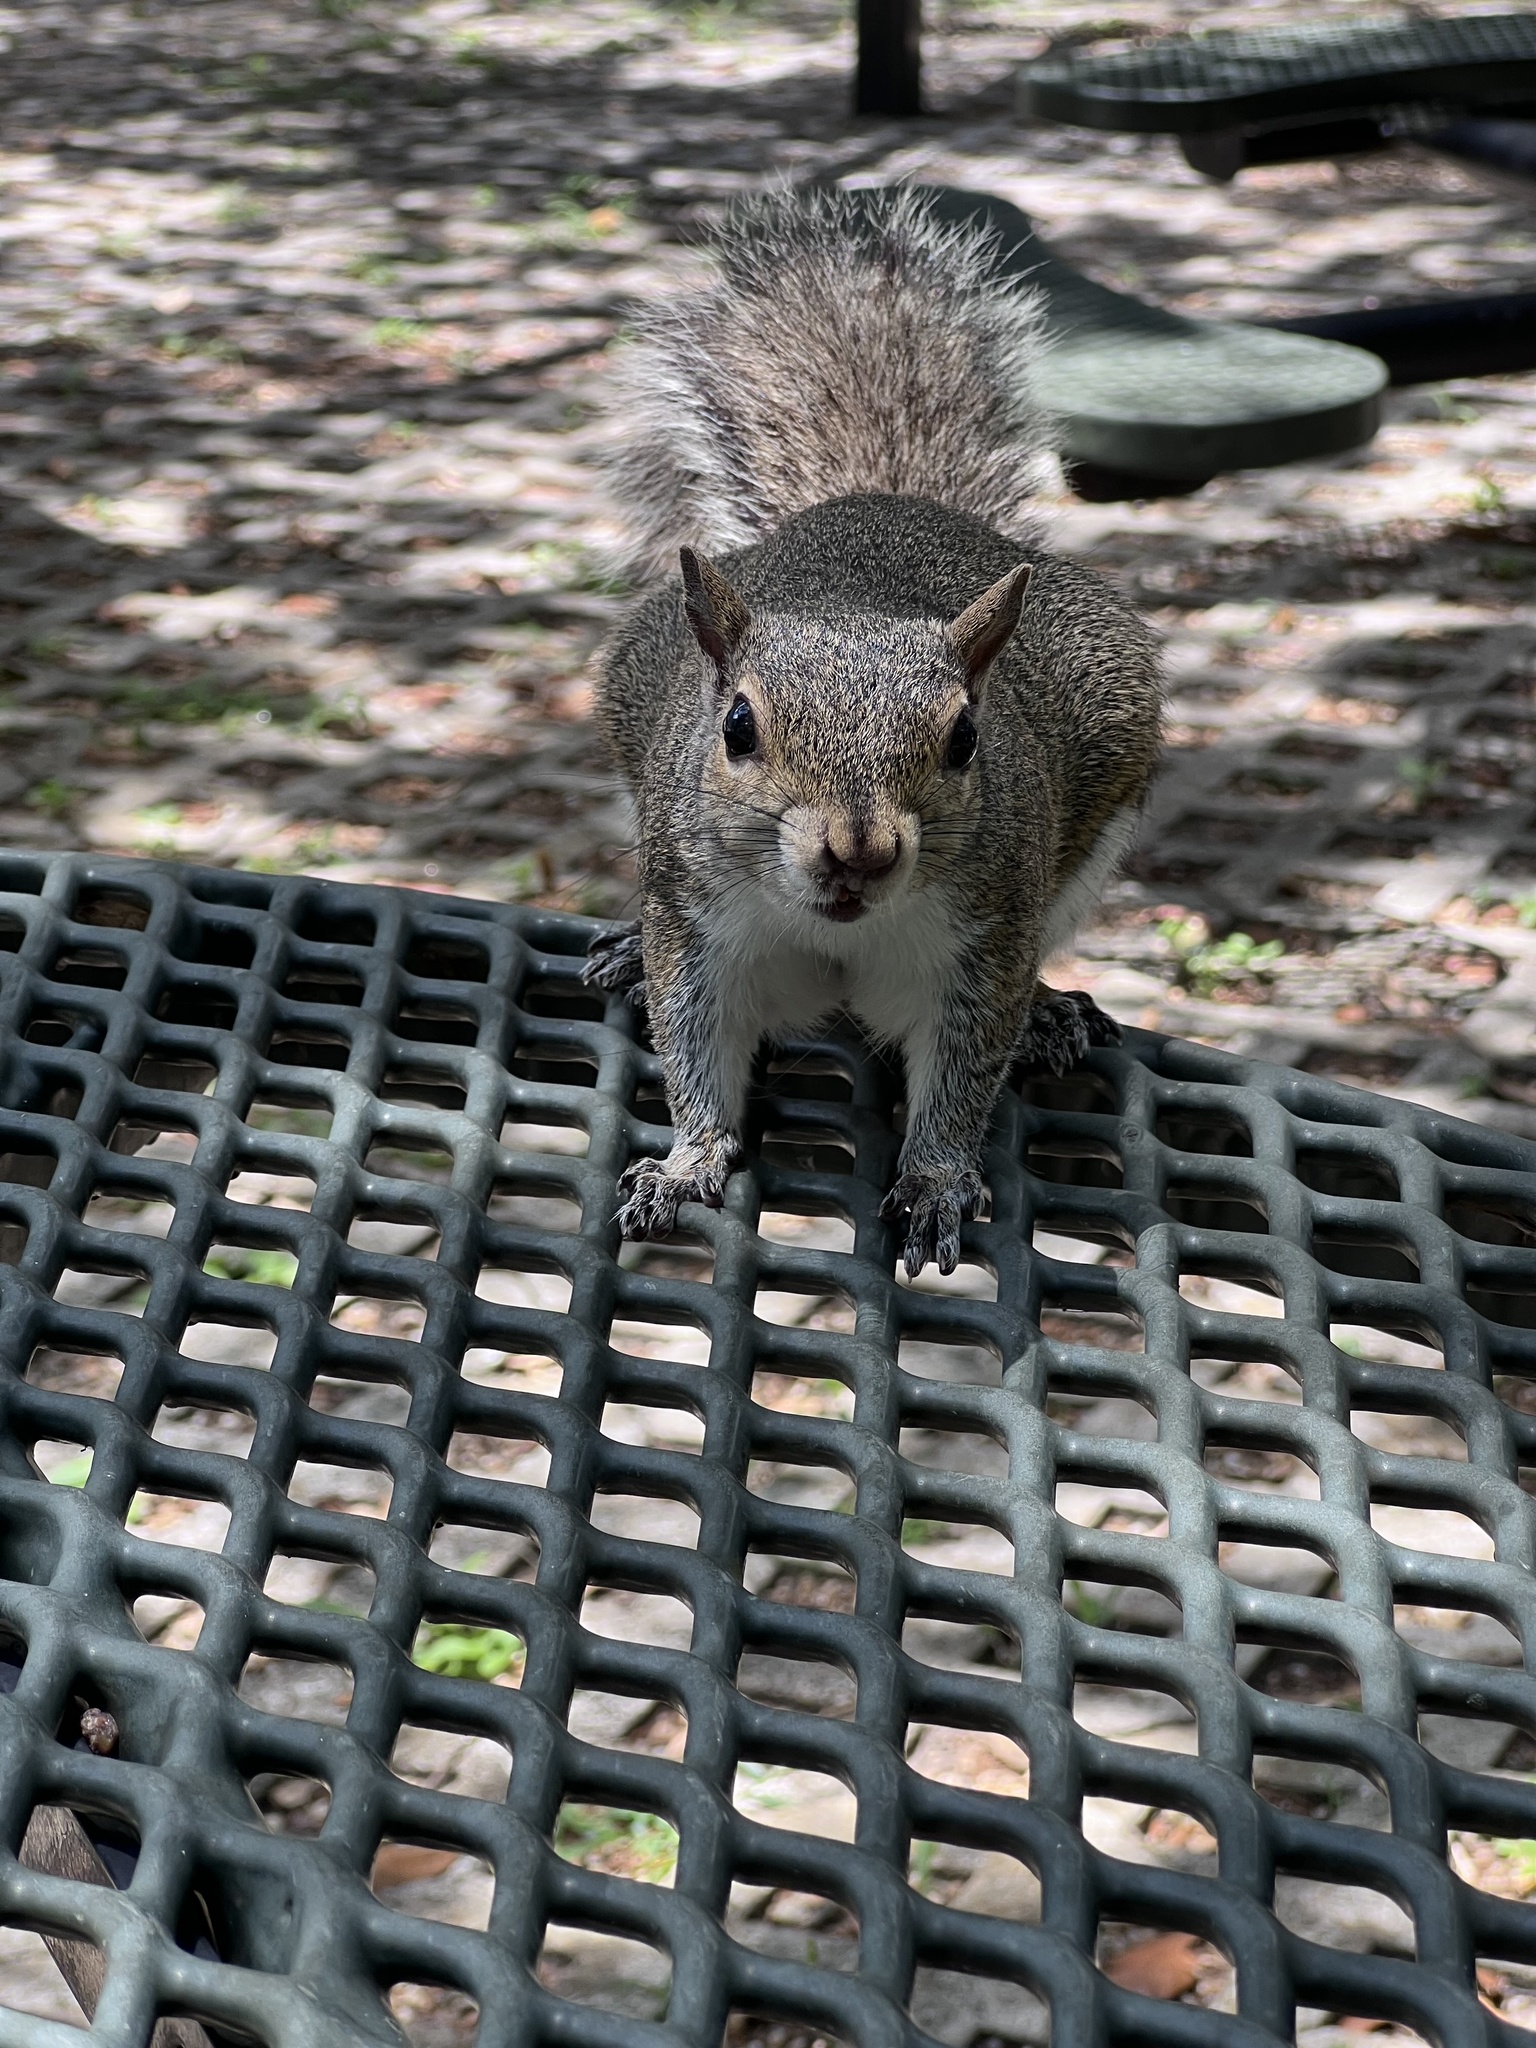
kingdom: Animalia
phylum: Chordata
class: Mammalia
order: Rodentia
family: Sciuridae
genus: Sciurus
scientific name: Sciurus carolinensis
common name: Eastern gray squirrel
